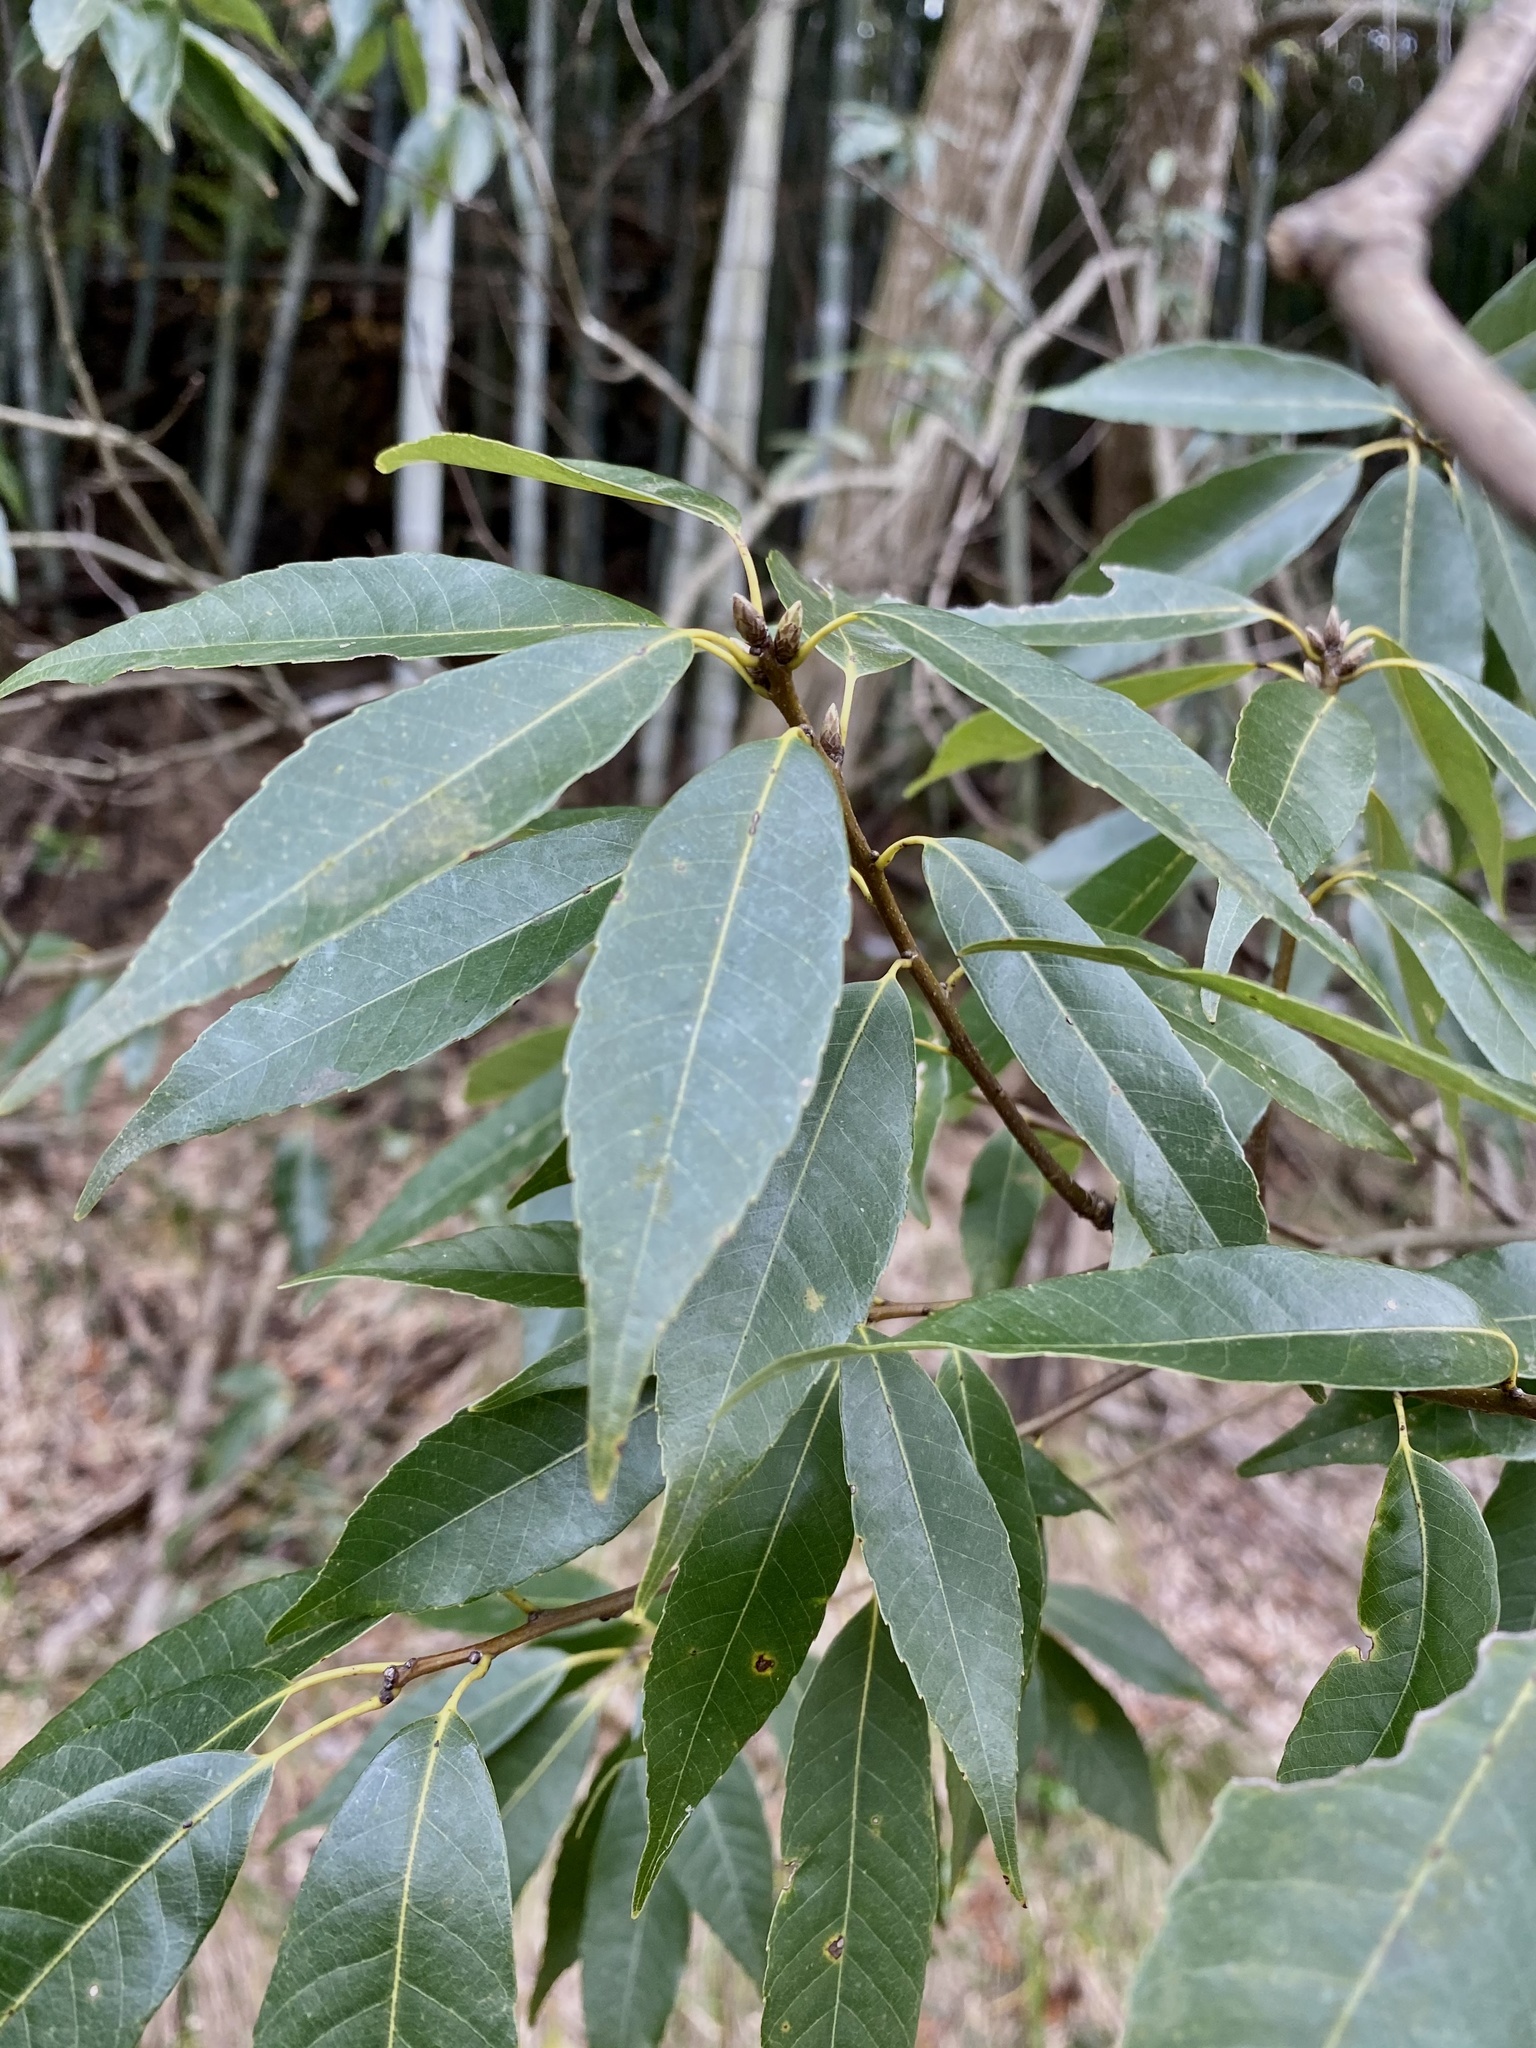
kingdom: Plantae
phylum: Tracheophyta
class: Magnoliopsida
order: Fagales
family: Fagaceae
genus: Quercus
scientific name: Quercus myrsinifolia
